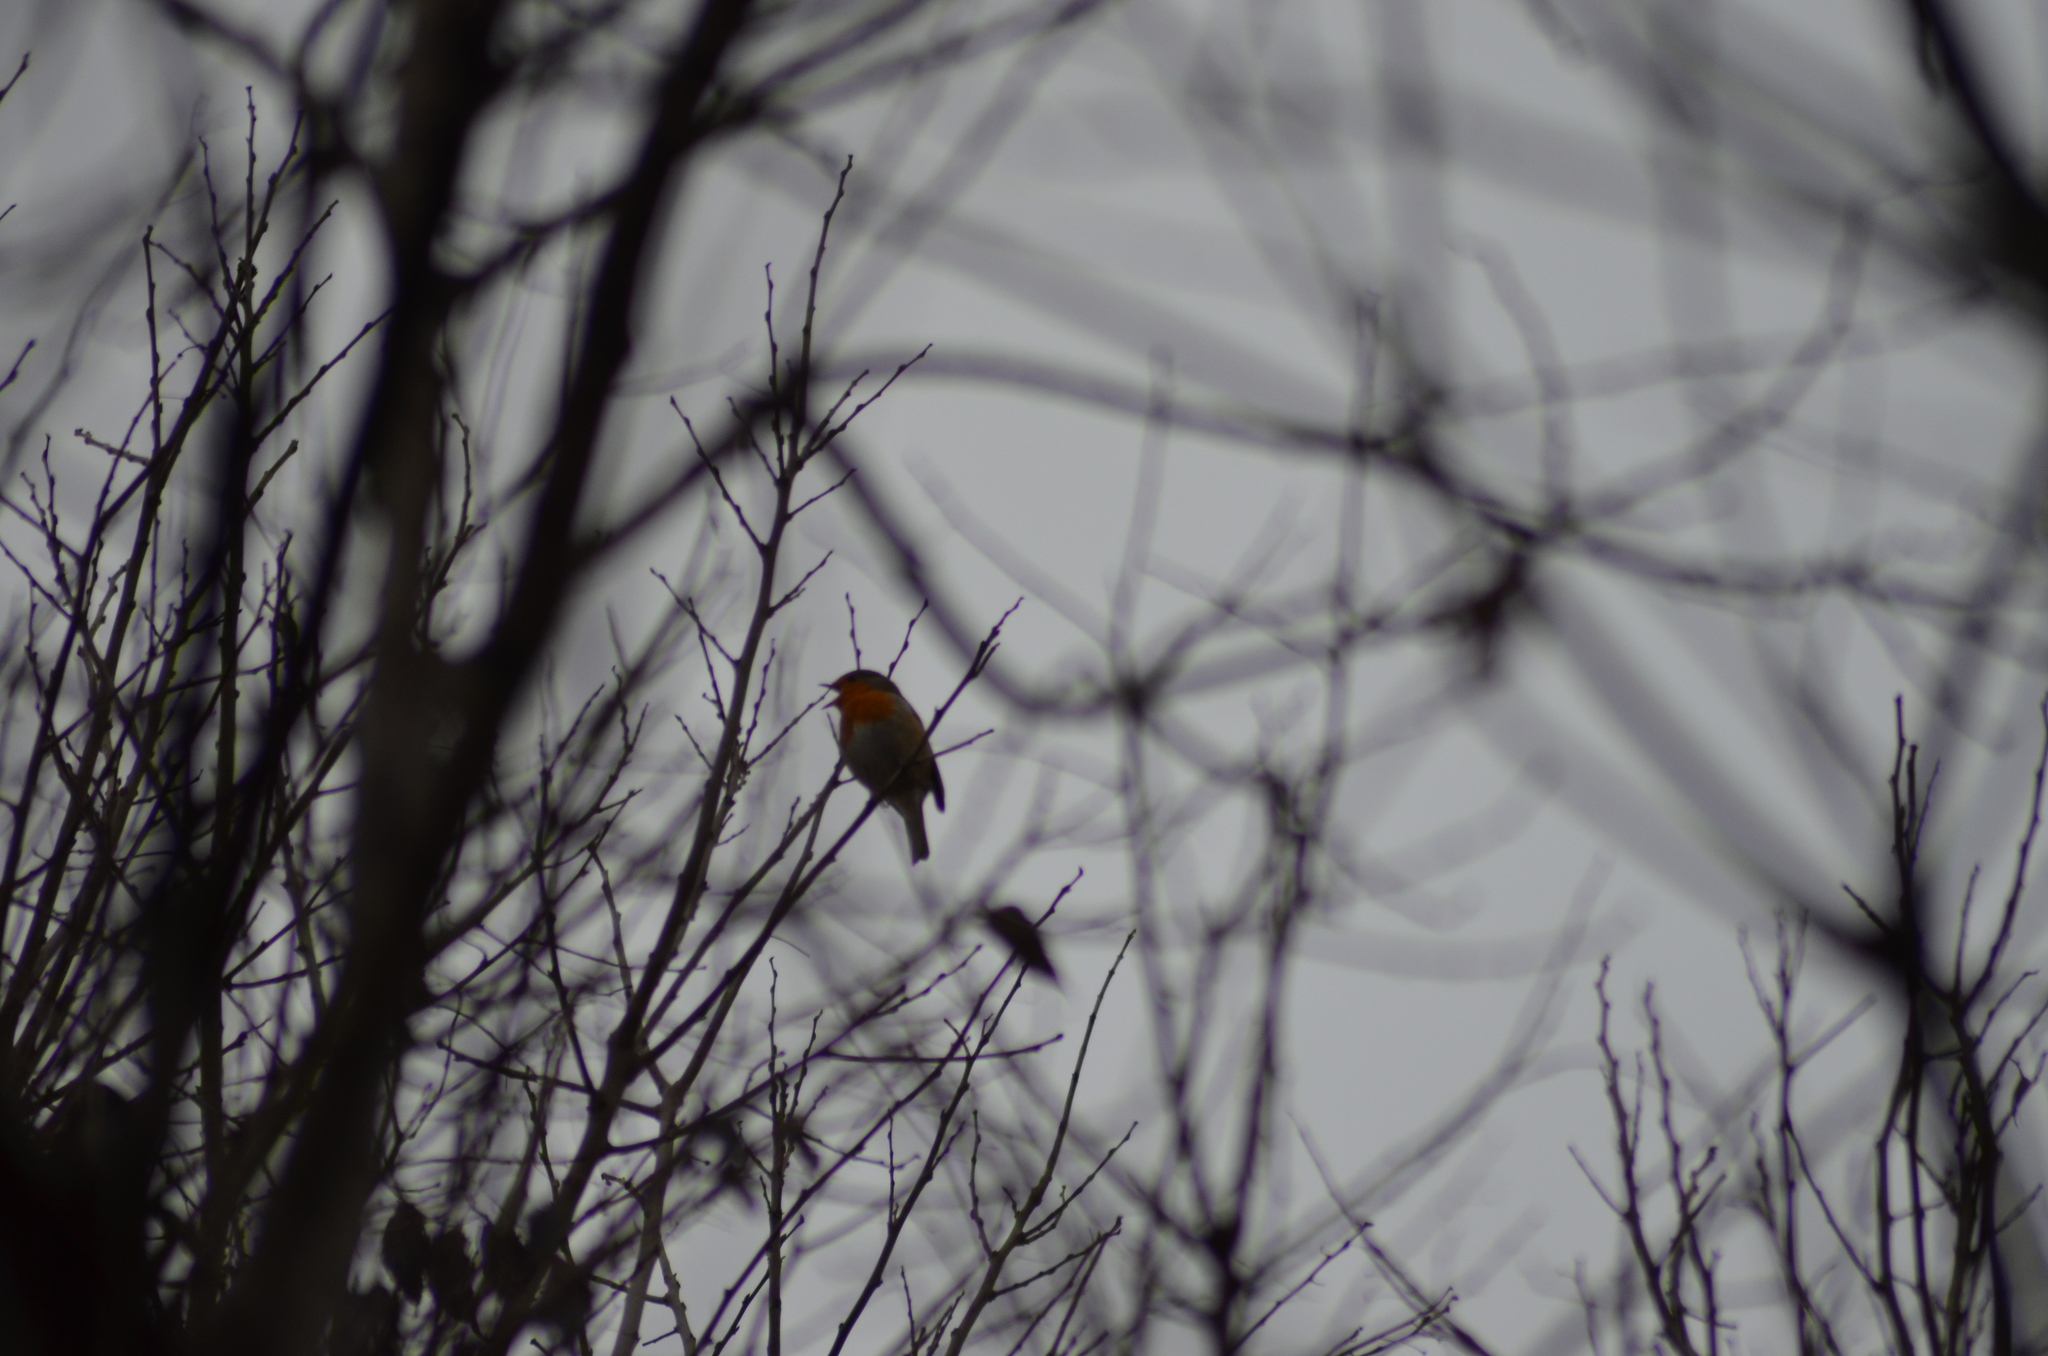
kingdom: Animalia
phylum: Chordata
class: Aves
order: Passeriformes
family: Muscicapidae
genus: Erithacus
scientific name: Erithacus rubecula
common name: European robin
